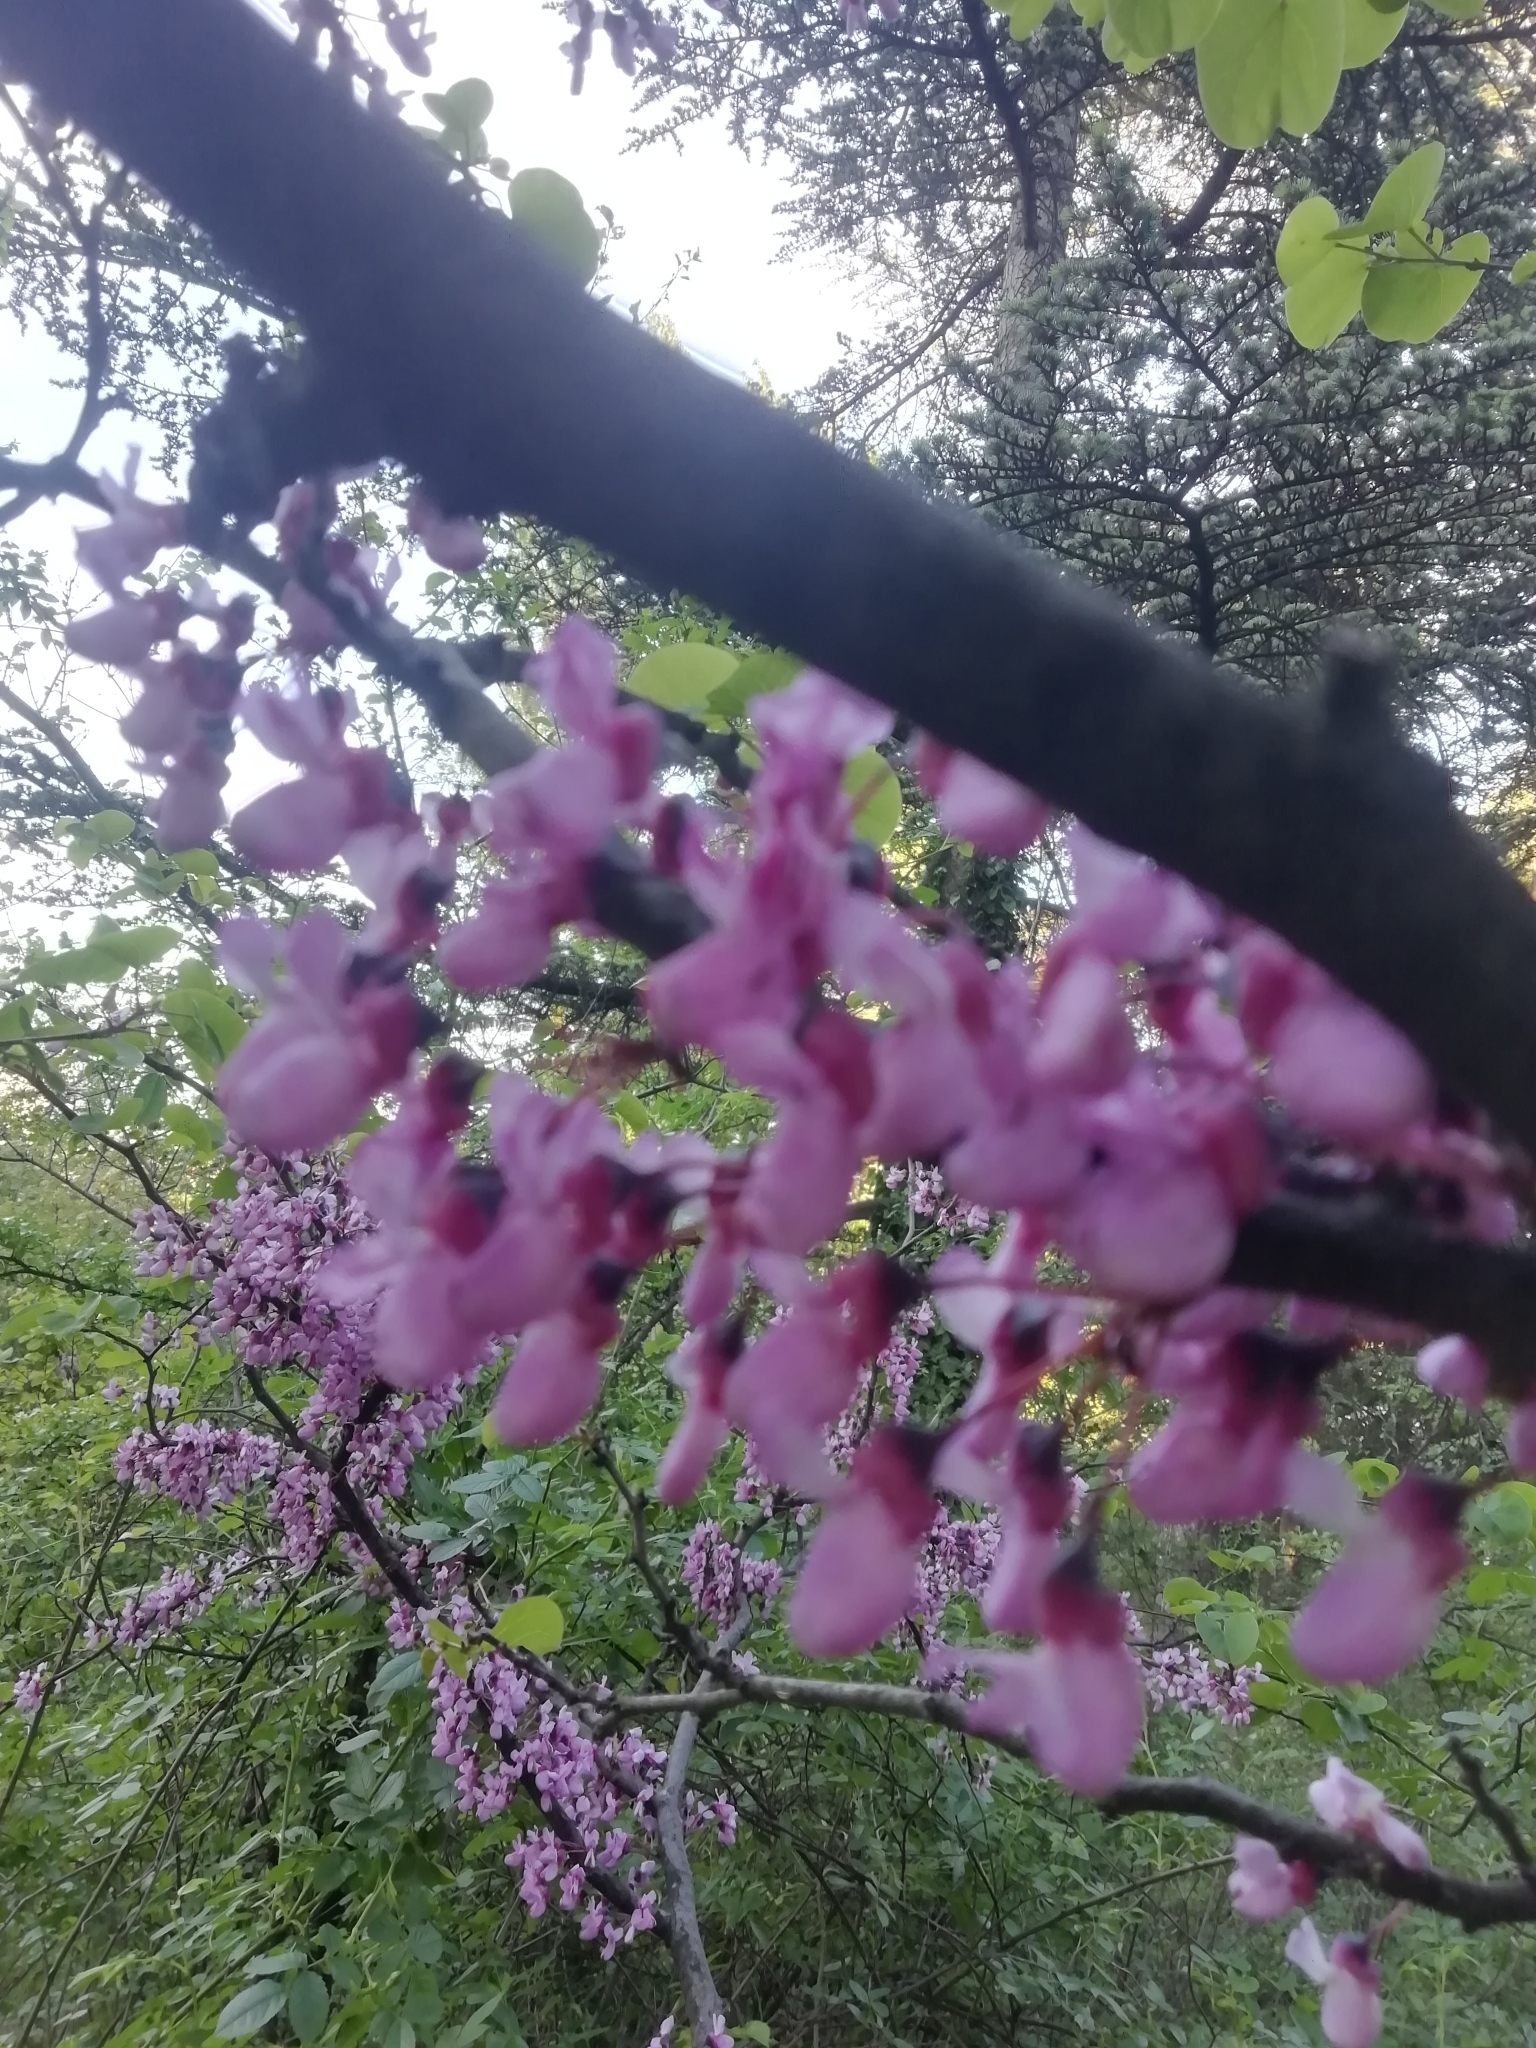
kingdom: Plantae
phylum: Tracheophyta
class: Magnoliopsida
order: Fabales
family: Fabaceae
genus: Cercis
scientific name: Cercis siliquastrum
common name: Judas tree
